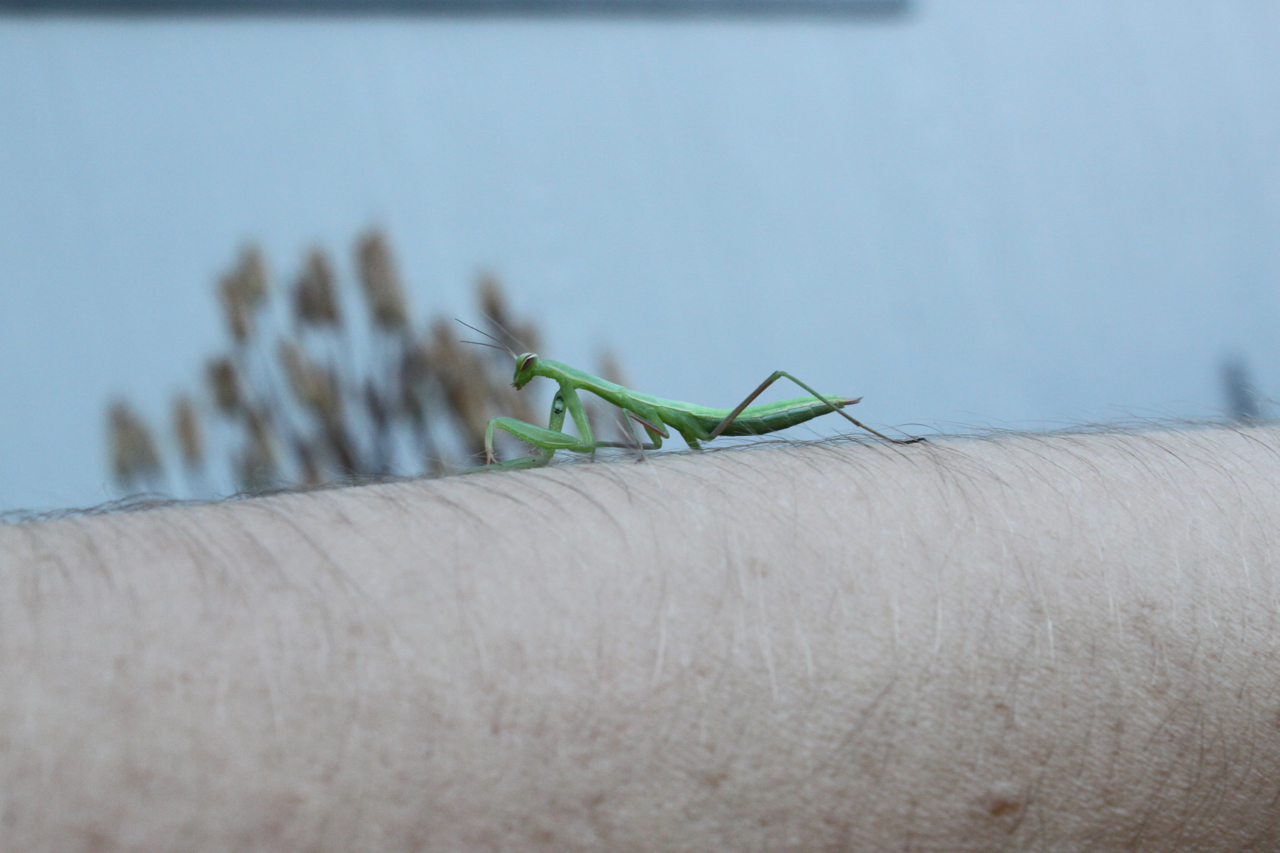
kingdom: Animalia
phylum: Arthropoda
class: Insecta
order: Mantodea
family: Mantidae
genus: Mantis
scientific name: Mantis religiosa
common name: Praying mantis
